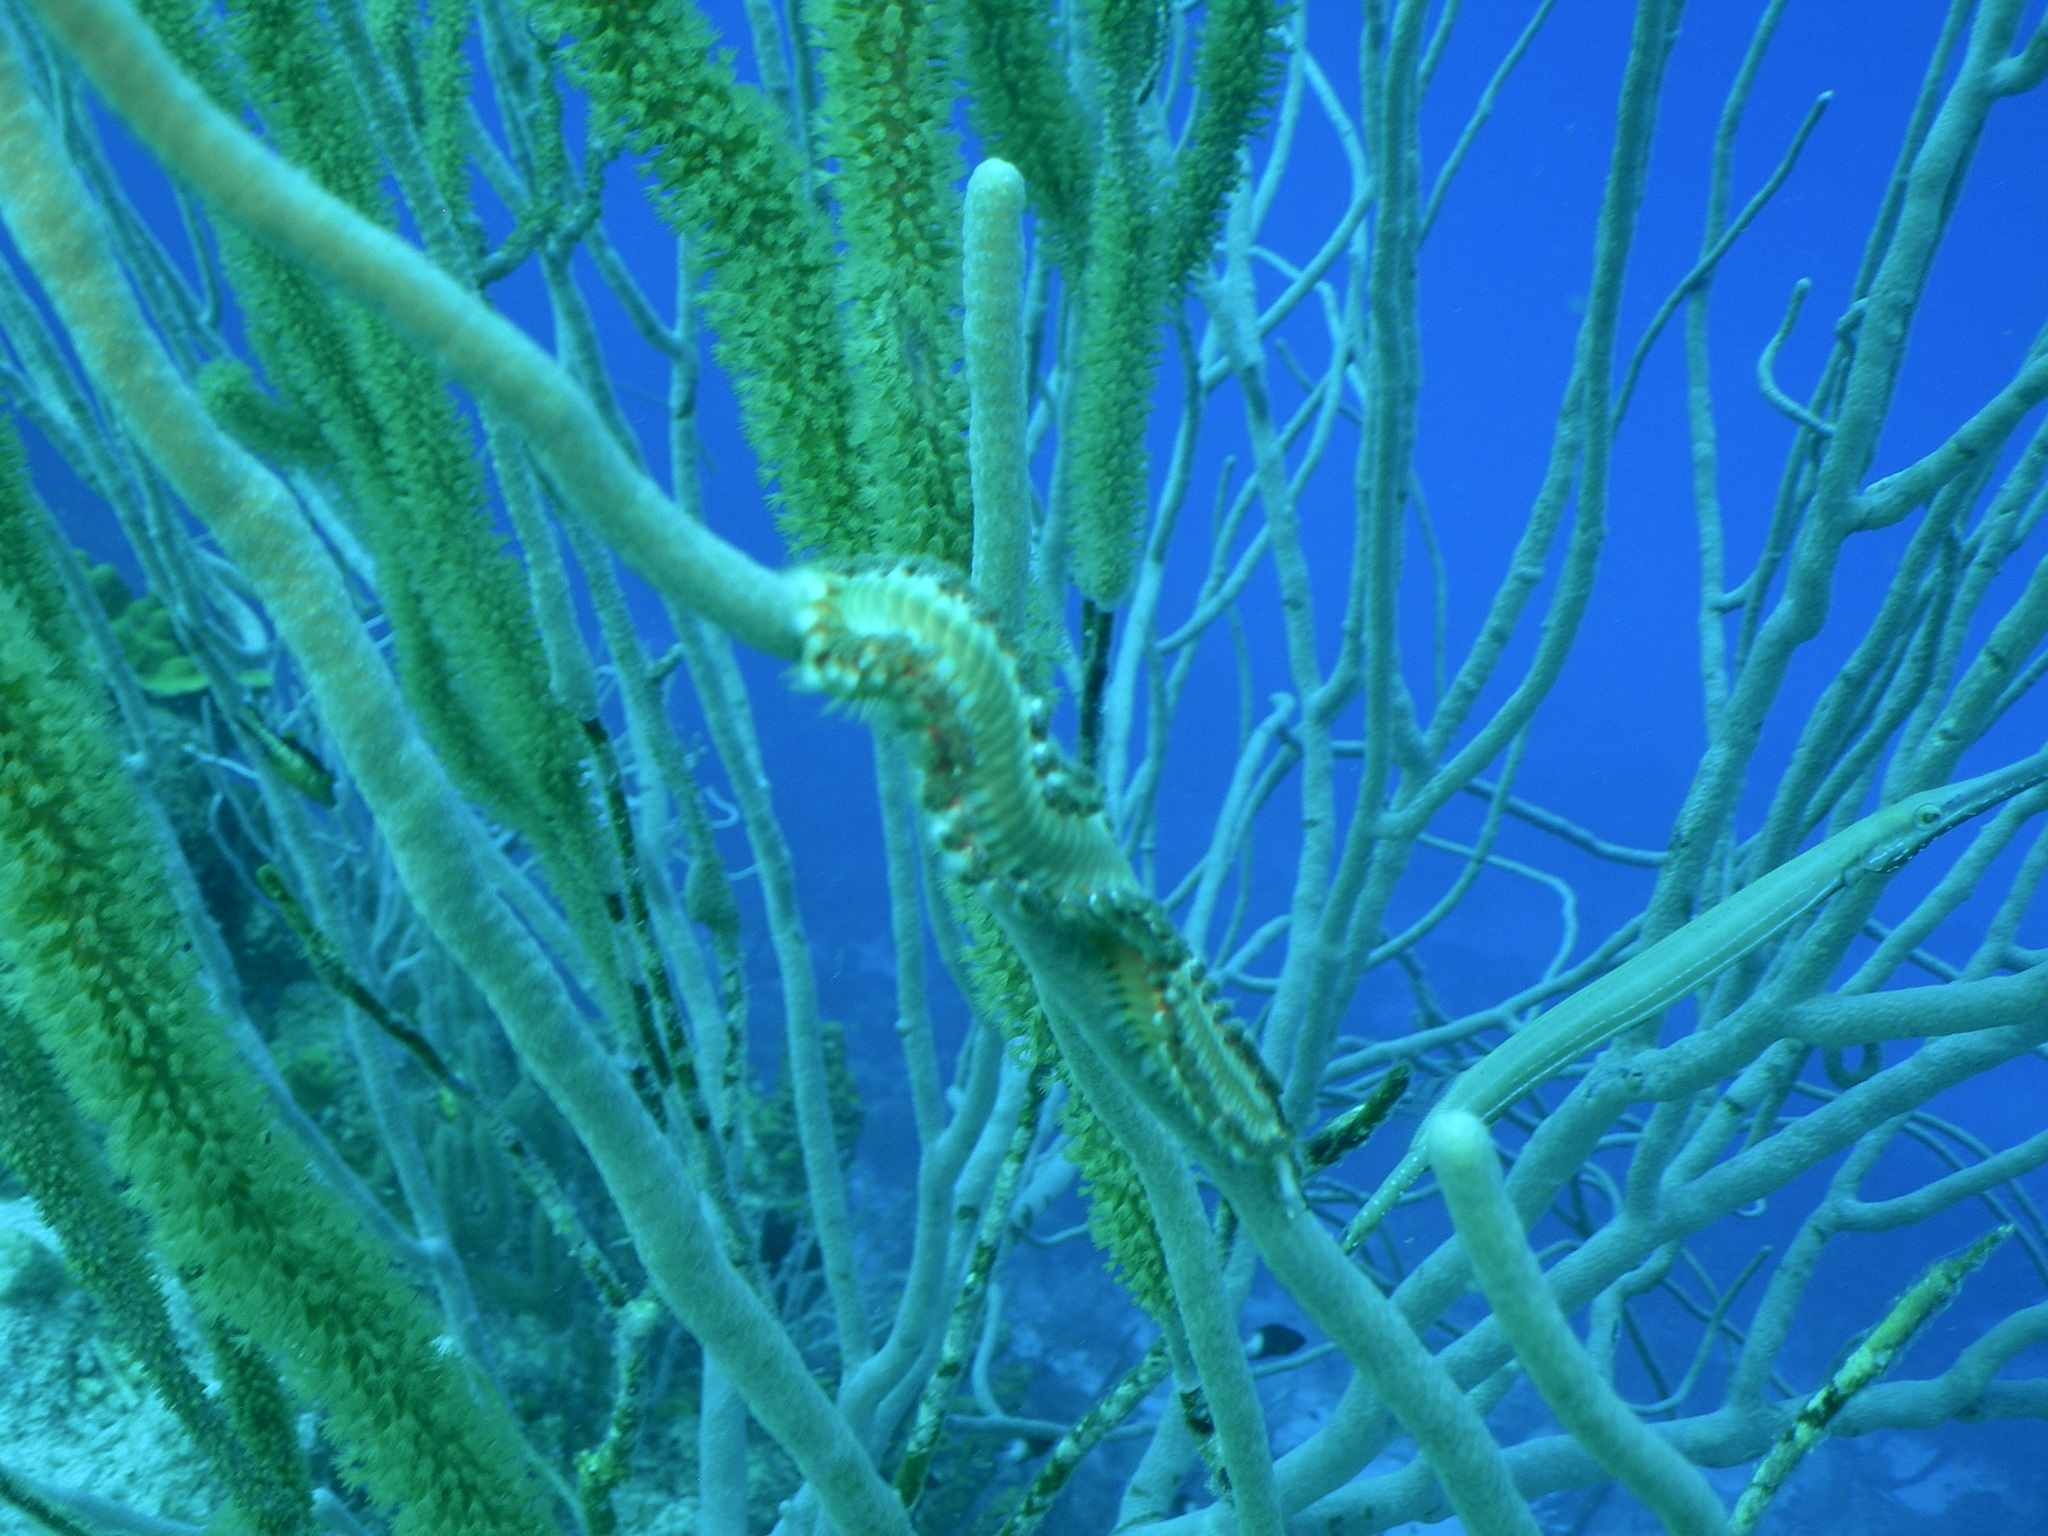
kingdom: Animalia
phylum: Annelida
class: Polychaeta
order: Amphinomida
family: Amphinomidae
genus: Hermodice
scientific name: Hermodice carunculata
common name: Bearded fireworm
